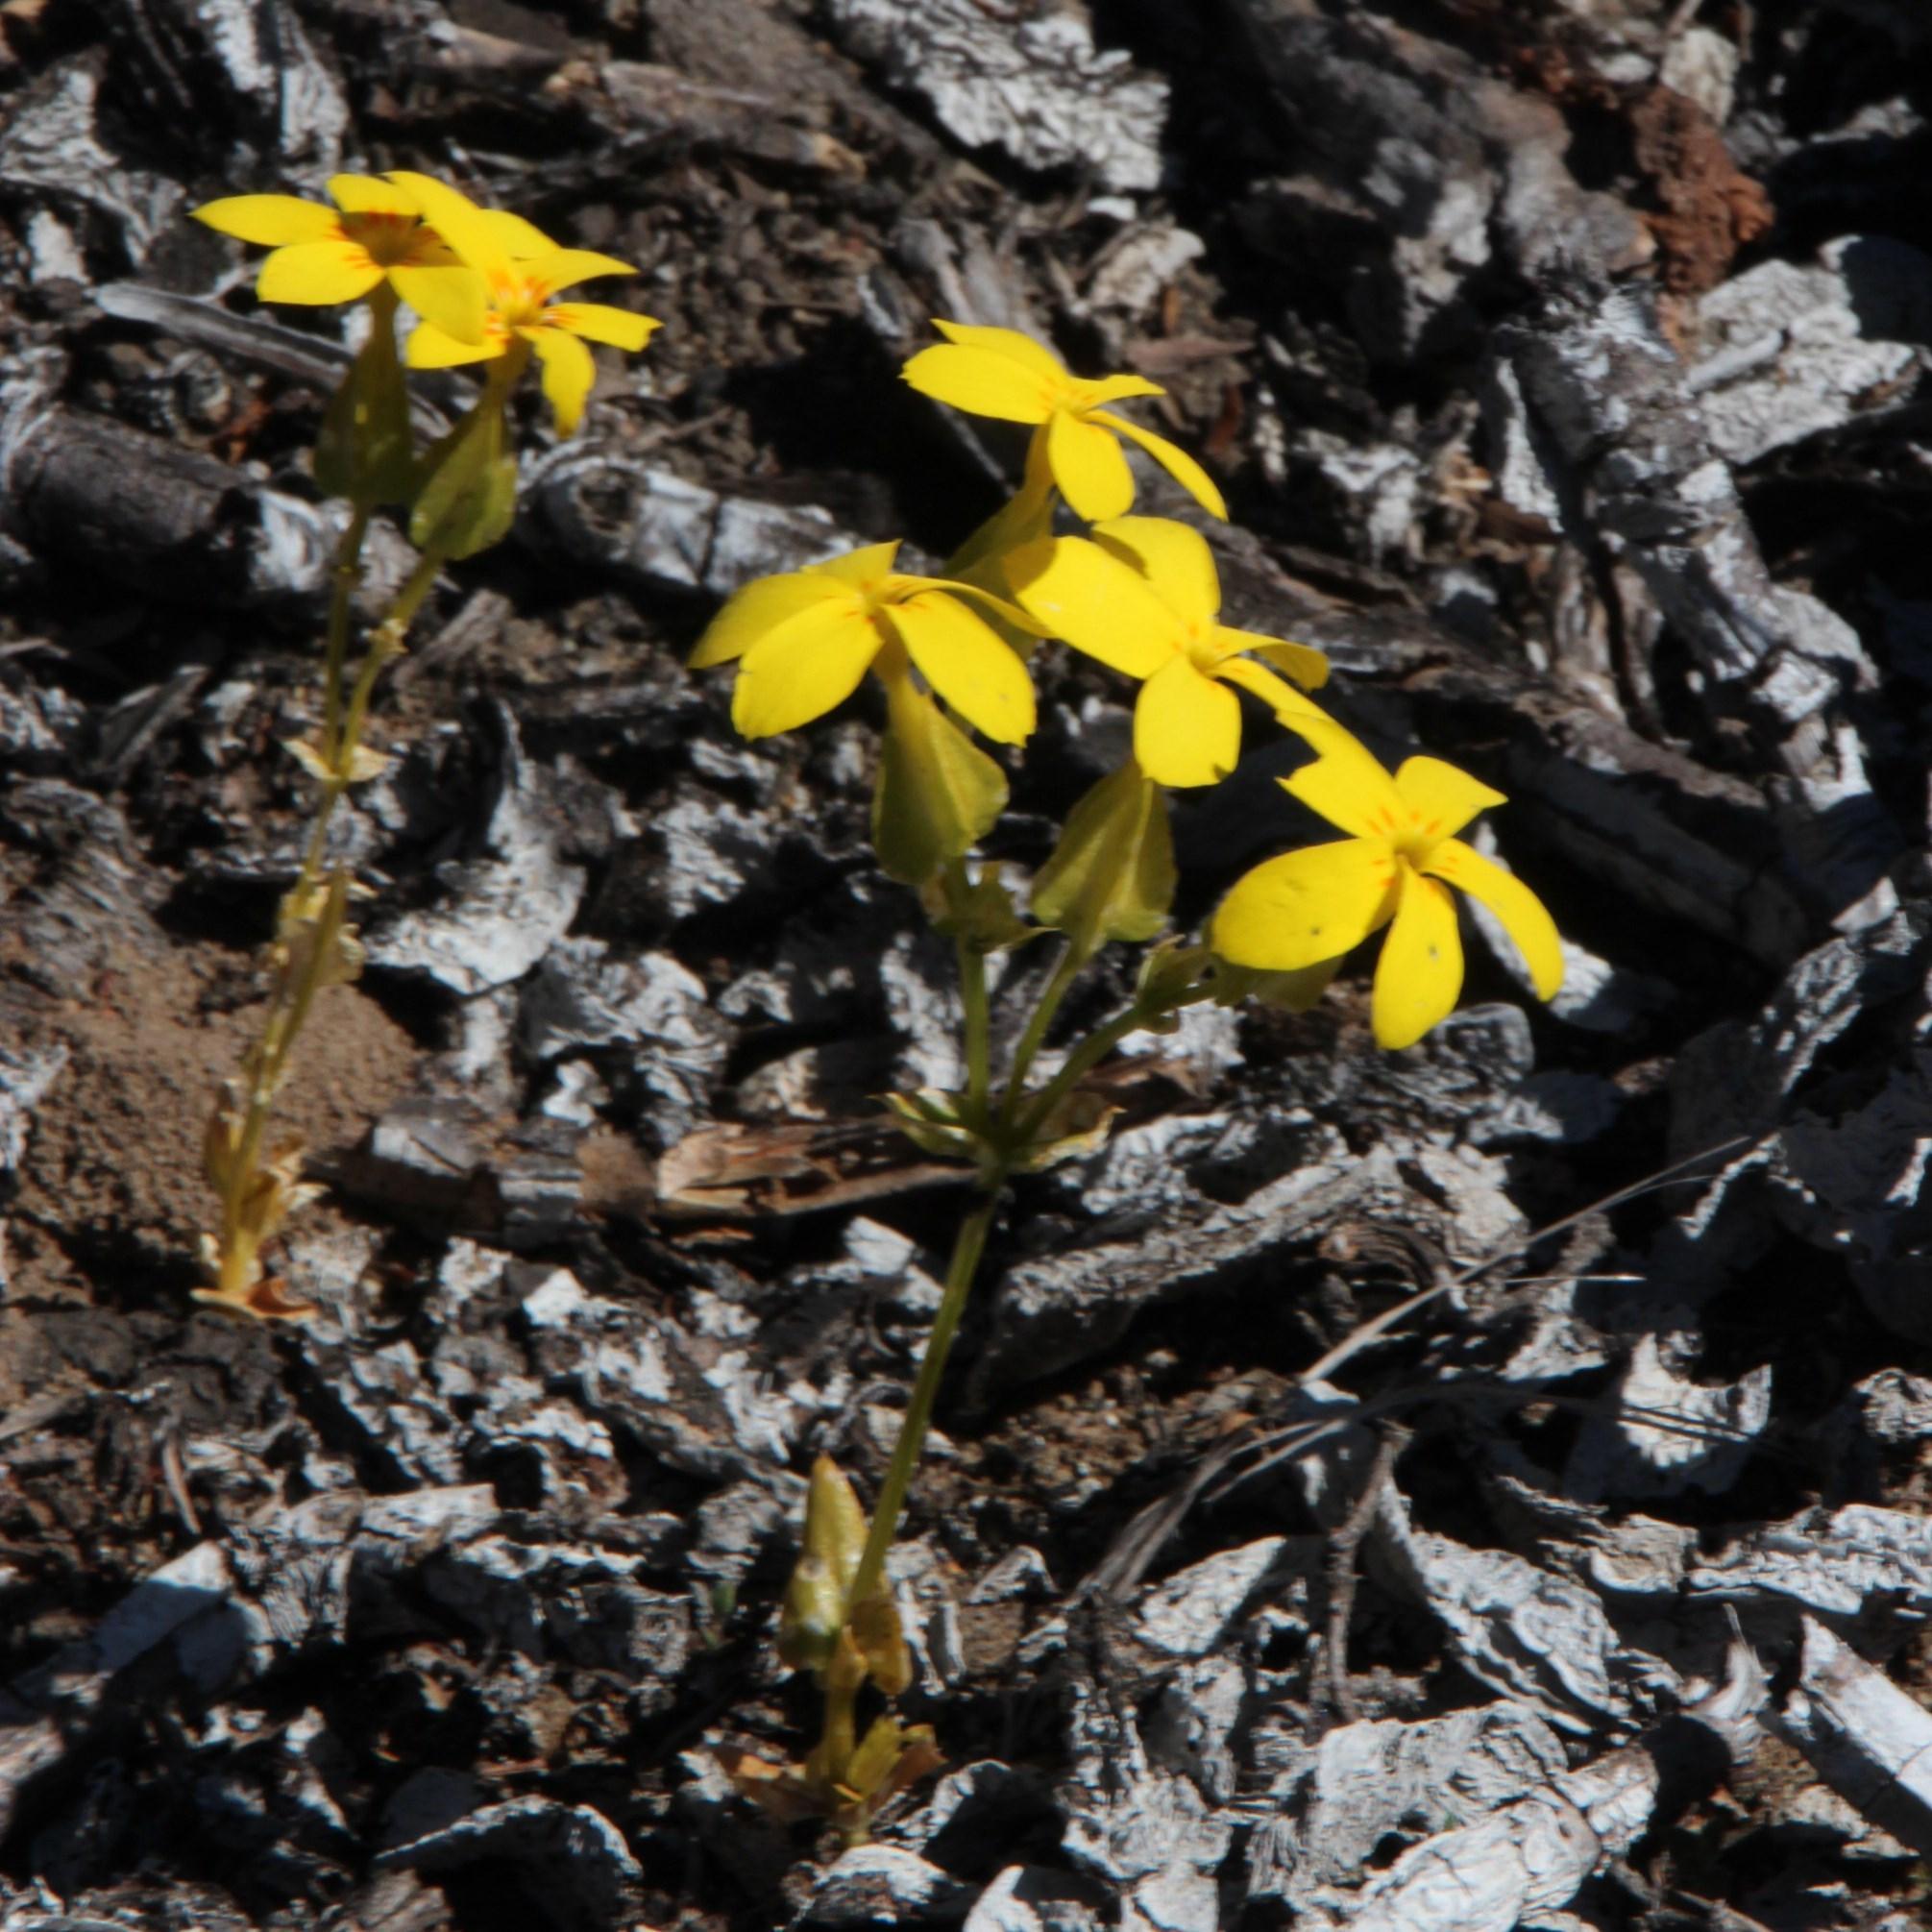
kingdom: Plantae
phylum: Tracheophyta
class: Magnoliopsida
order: Gentianales
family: Gentianaceae
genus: Sebaea
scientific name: Sebaea exacoides
